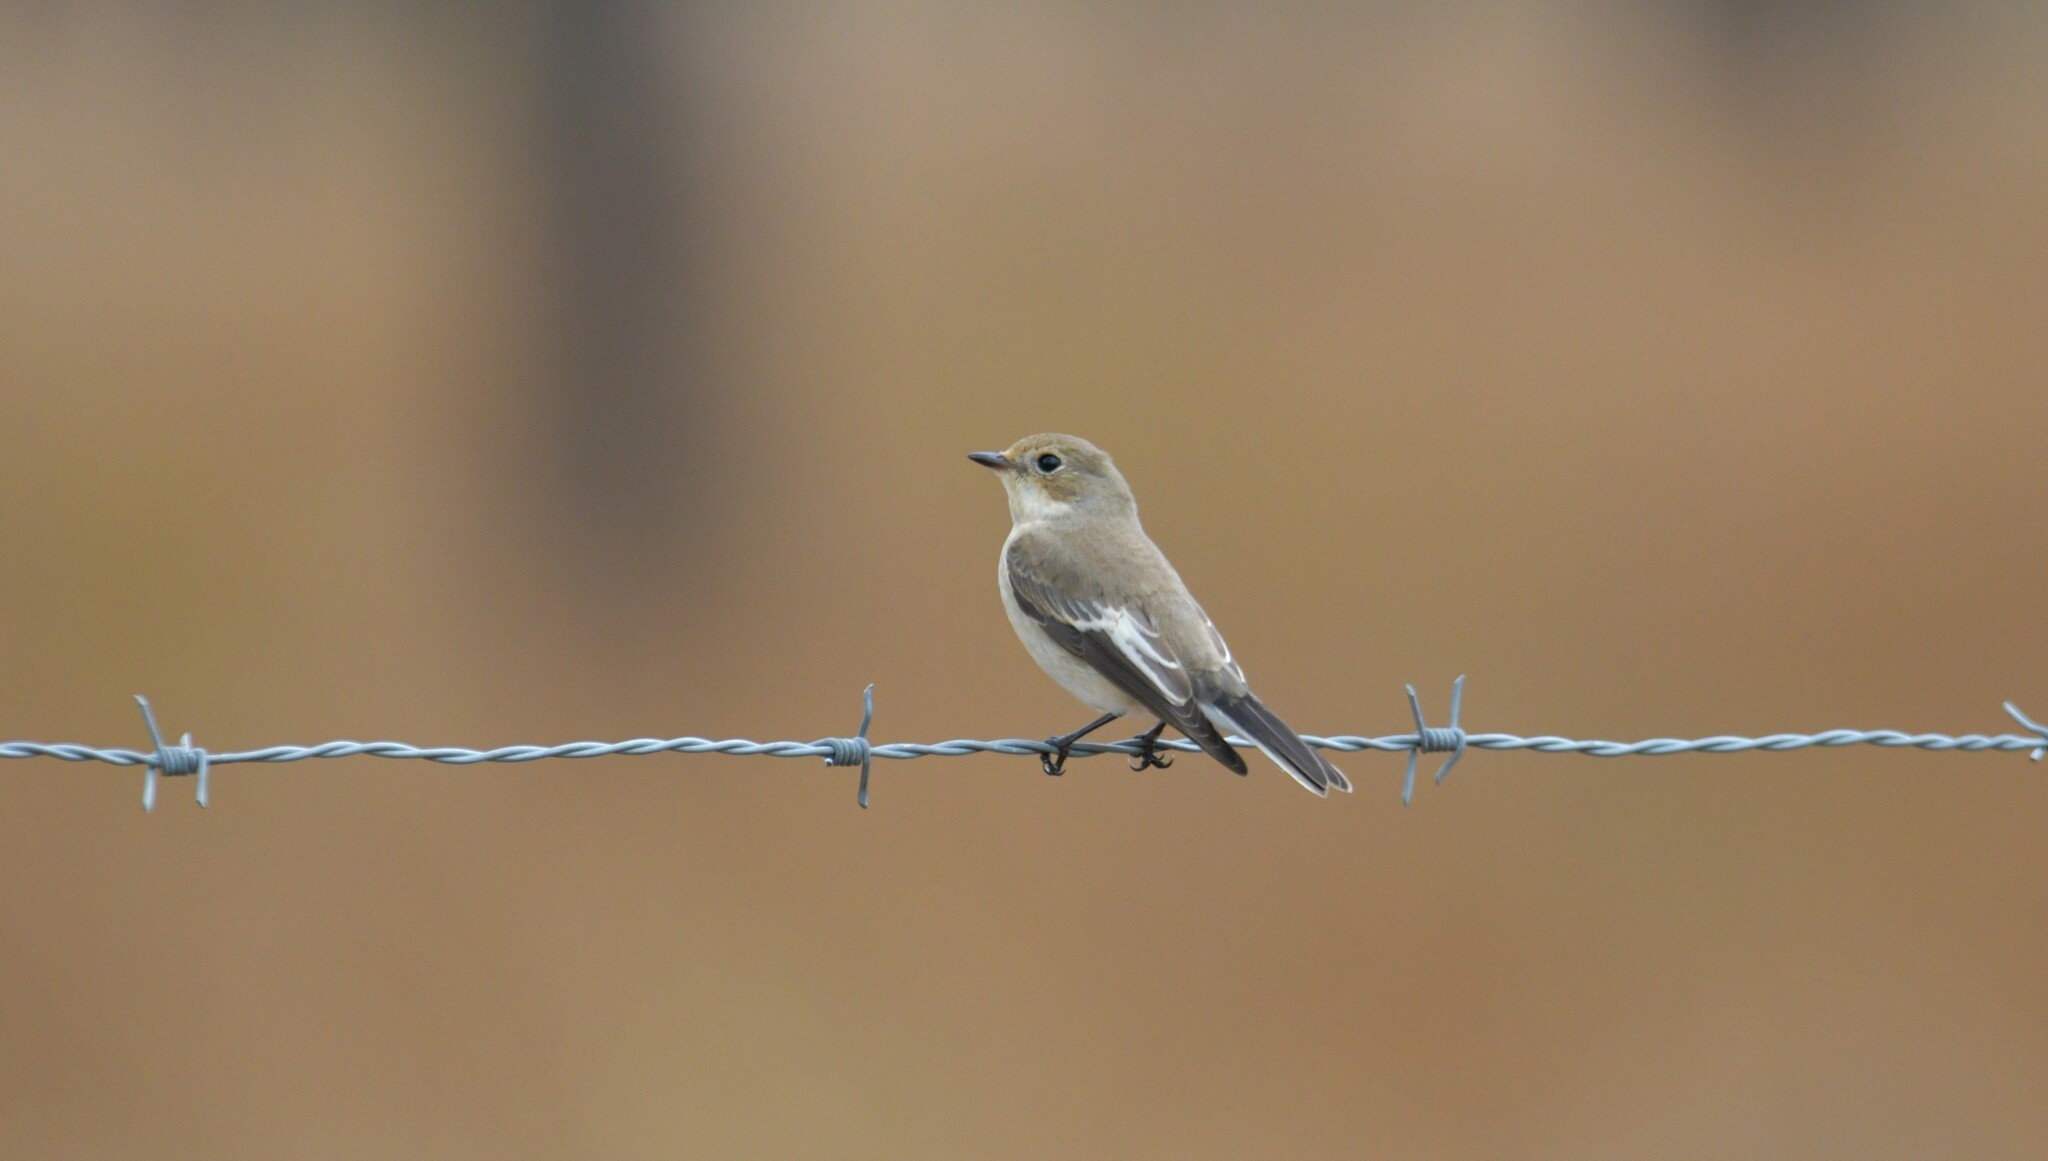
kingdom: Animalia
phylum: Chordata
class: Aves
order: Passeriformes
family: Muscicapidae
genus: Ficedula
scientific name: Ficedula hypoleuca
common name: European pied flycatcher
